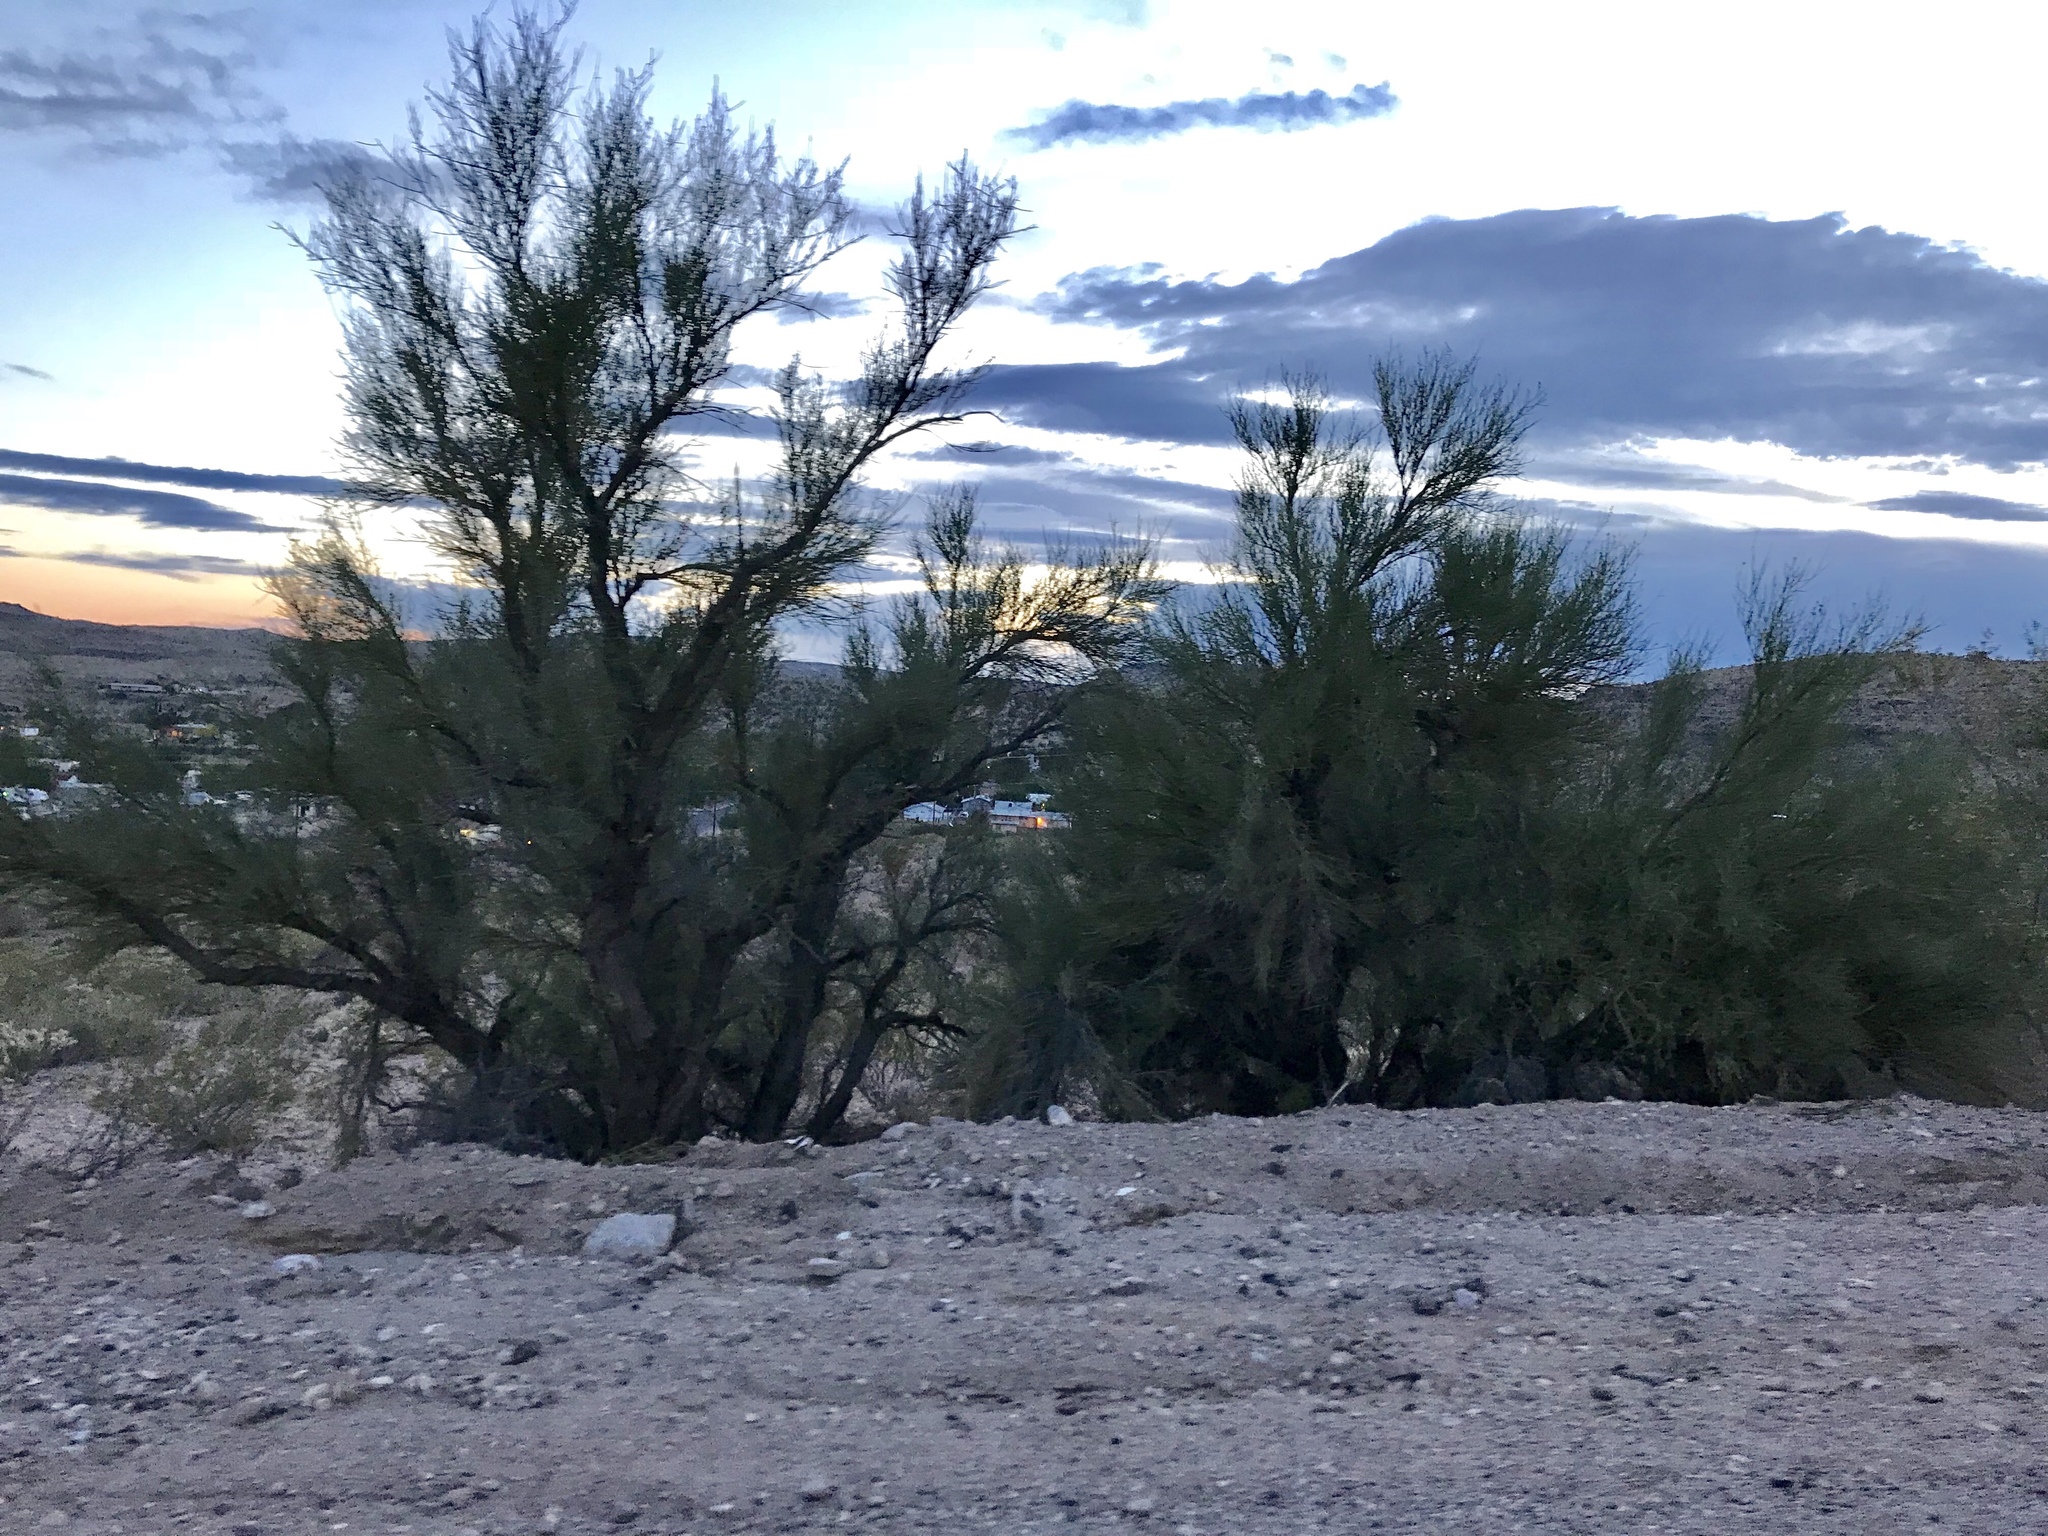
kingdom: Plantae
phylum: Tracheophyta
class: Magnoliopsida
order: Celastrales
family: Celastraceae
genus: Canotia
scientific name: Canotia holacantha
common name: Crucifixion thorns
